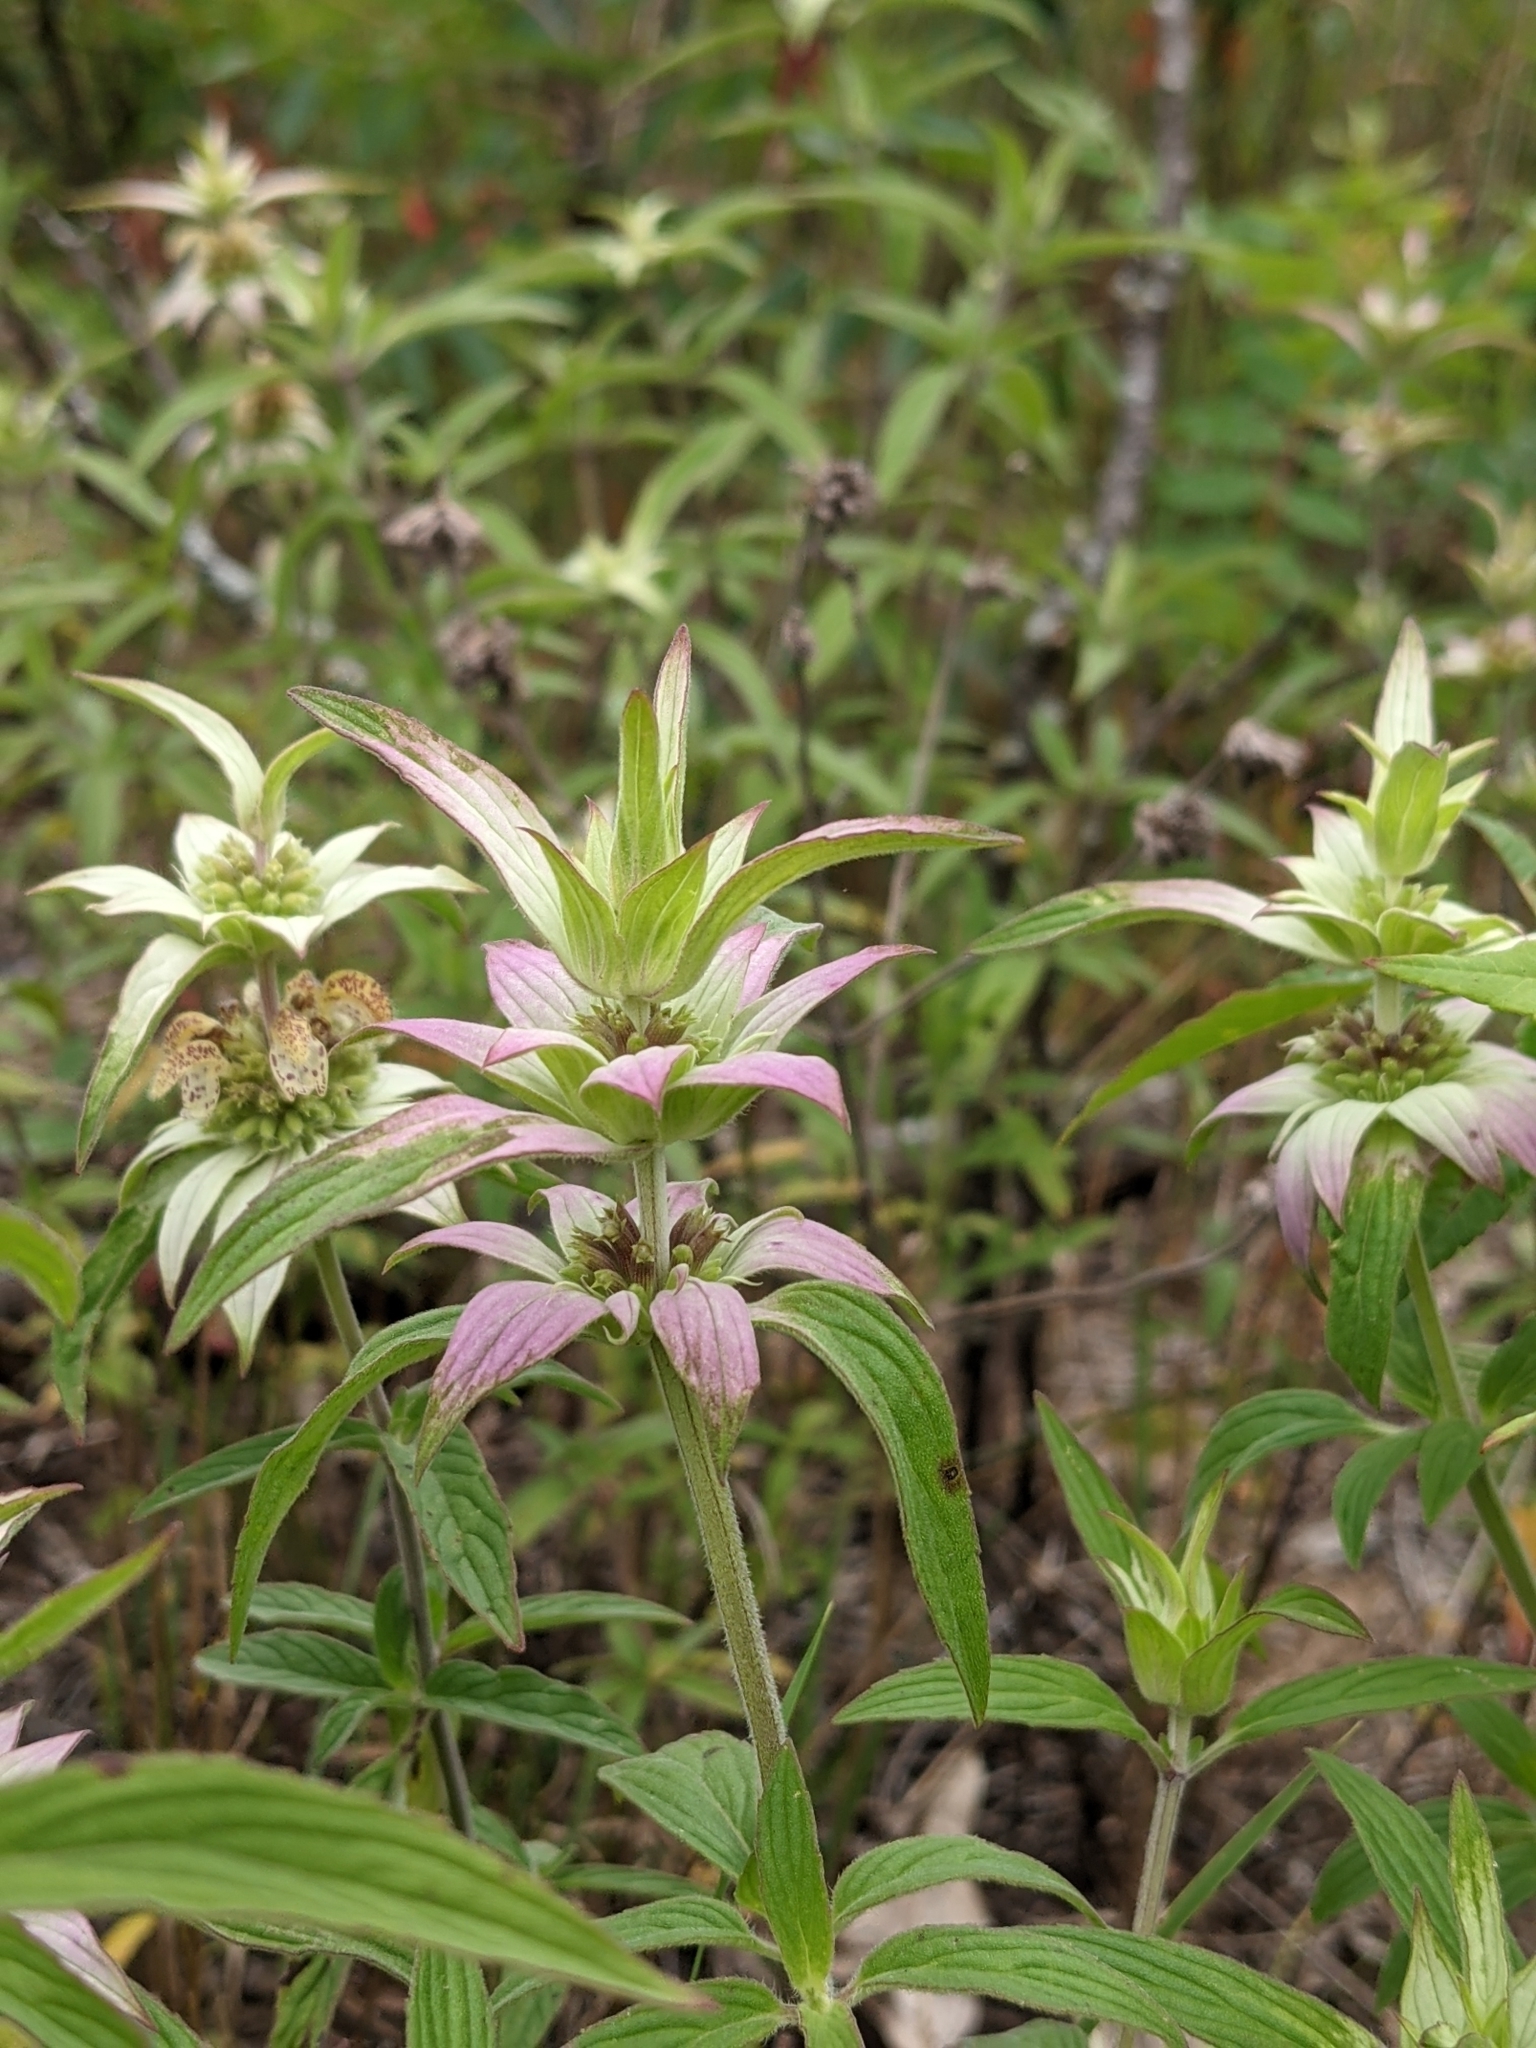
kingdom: Plantae
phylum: Tracheophyta
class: Magnoliopsida
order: Lamiales
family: Lamiaceae
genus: Monarda
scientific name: Monarda punctata
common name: Dotted monarda
